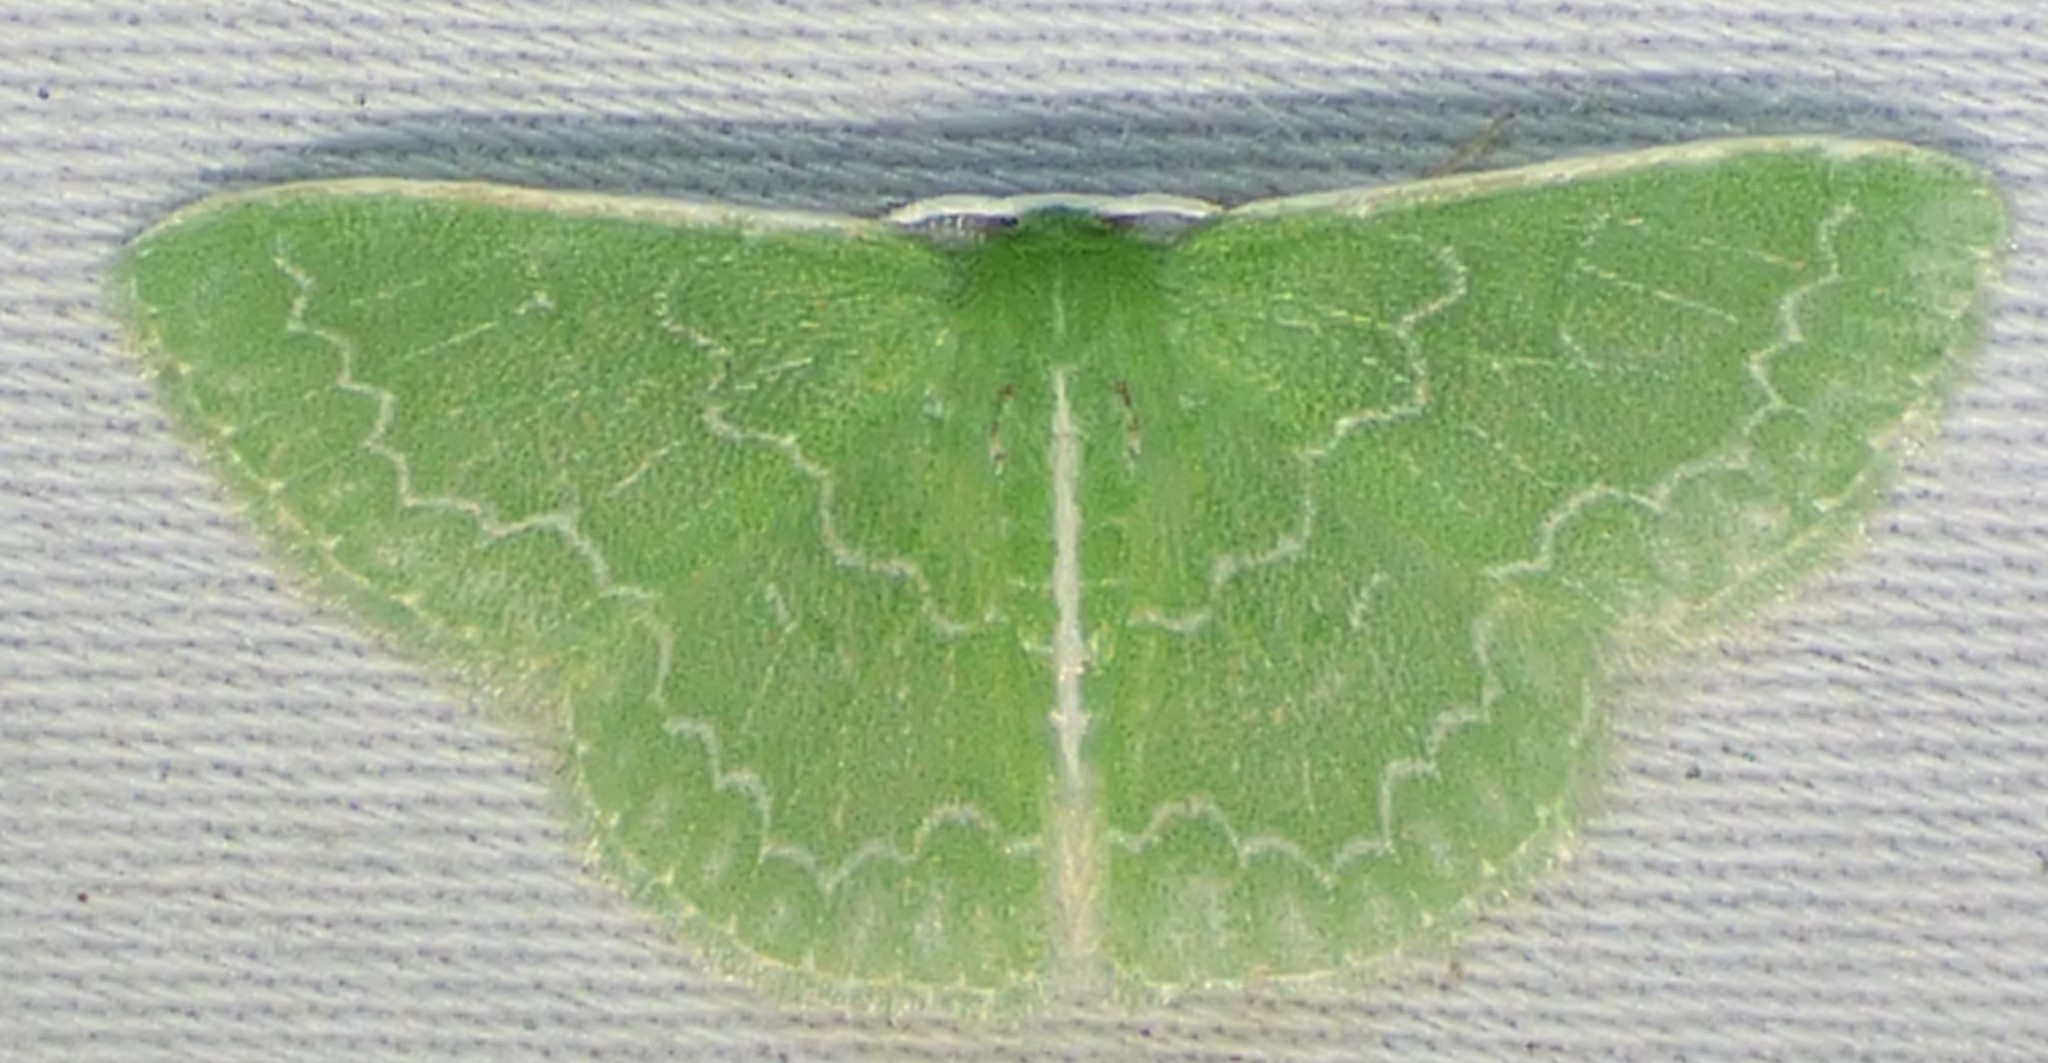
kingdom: Animalia
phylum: Arthropoda
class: Insecta
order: Lepidoptera
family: Geometridae
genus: Synchlora
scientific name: Synchlora frondaria
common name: Southern emerald
